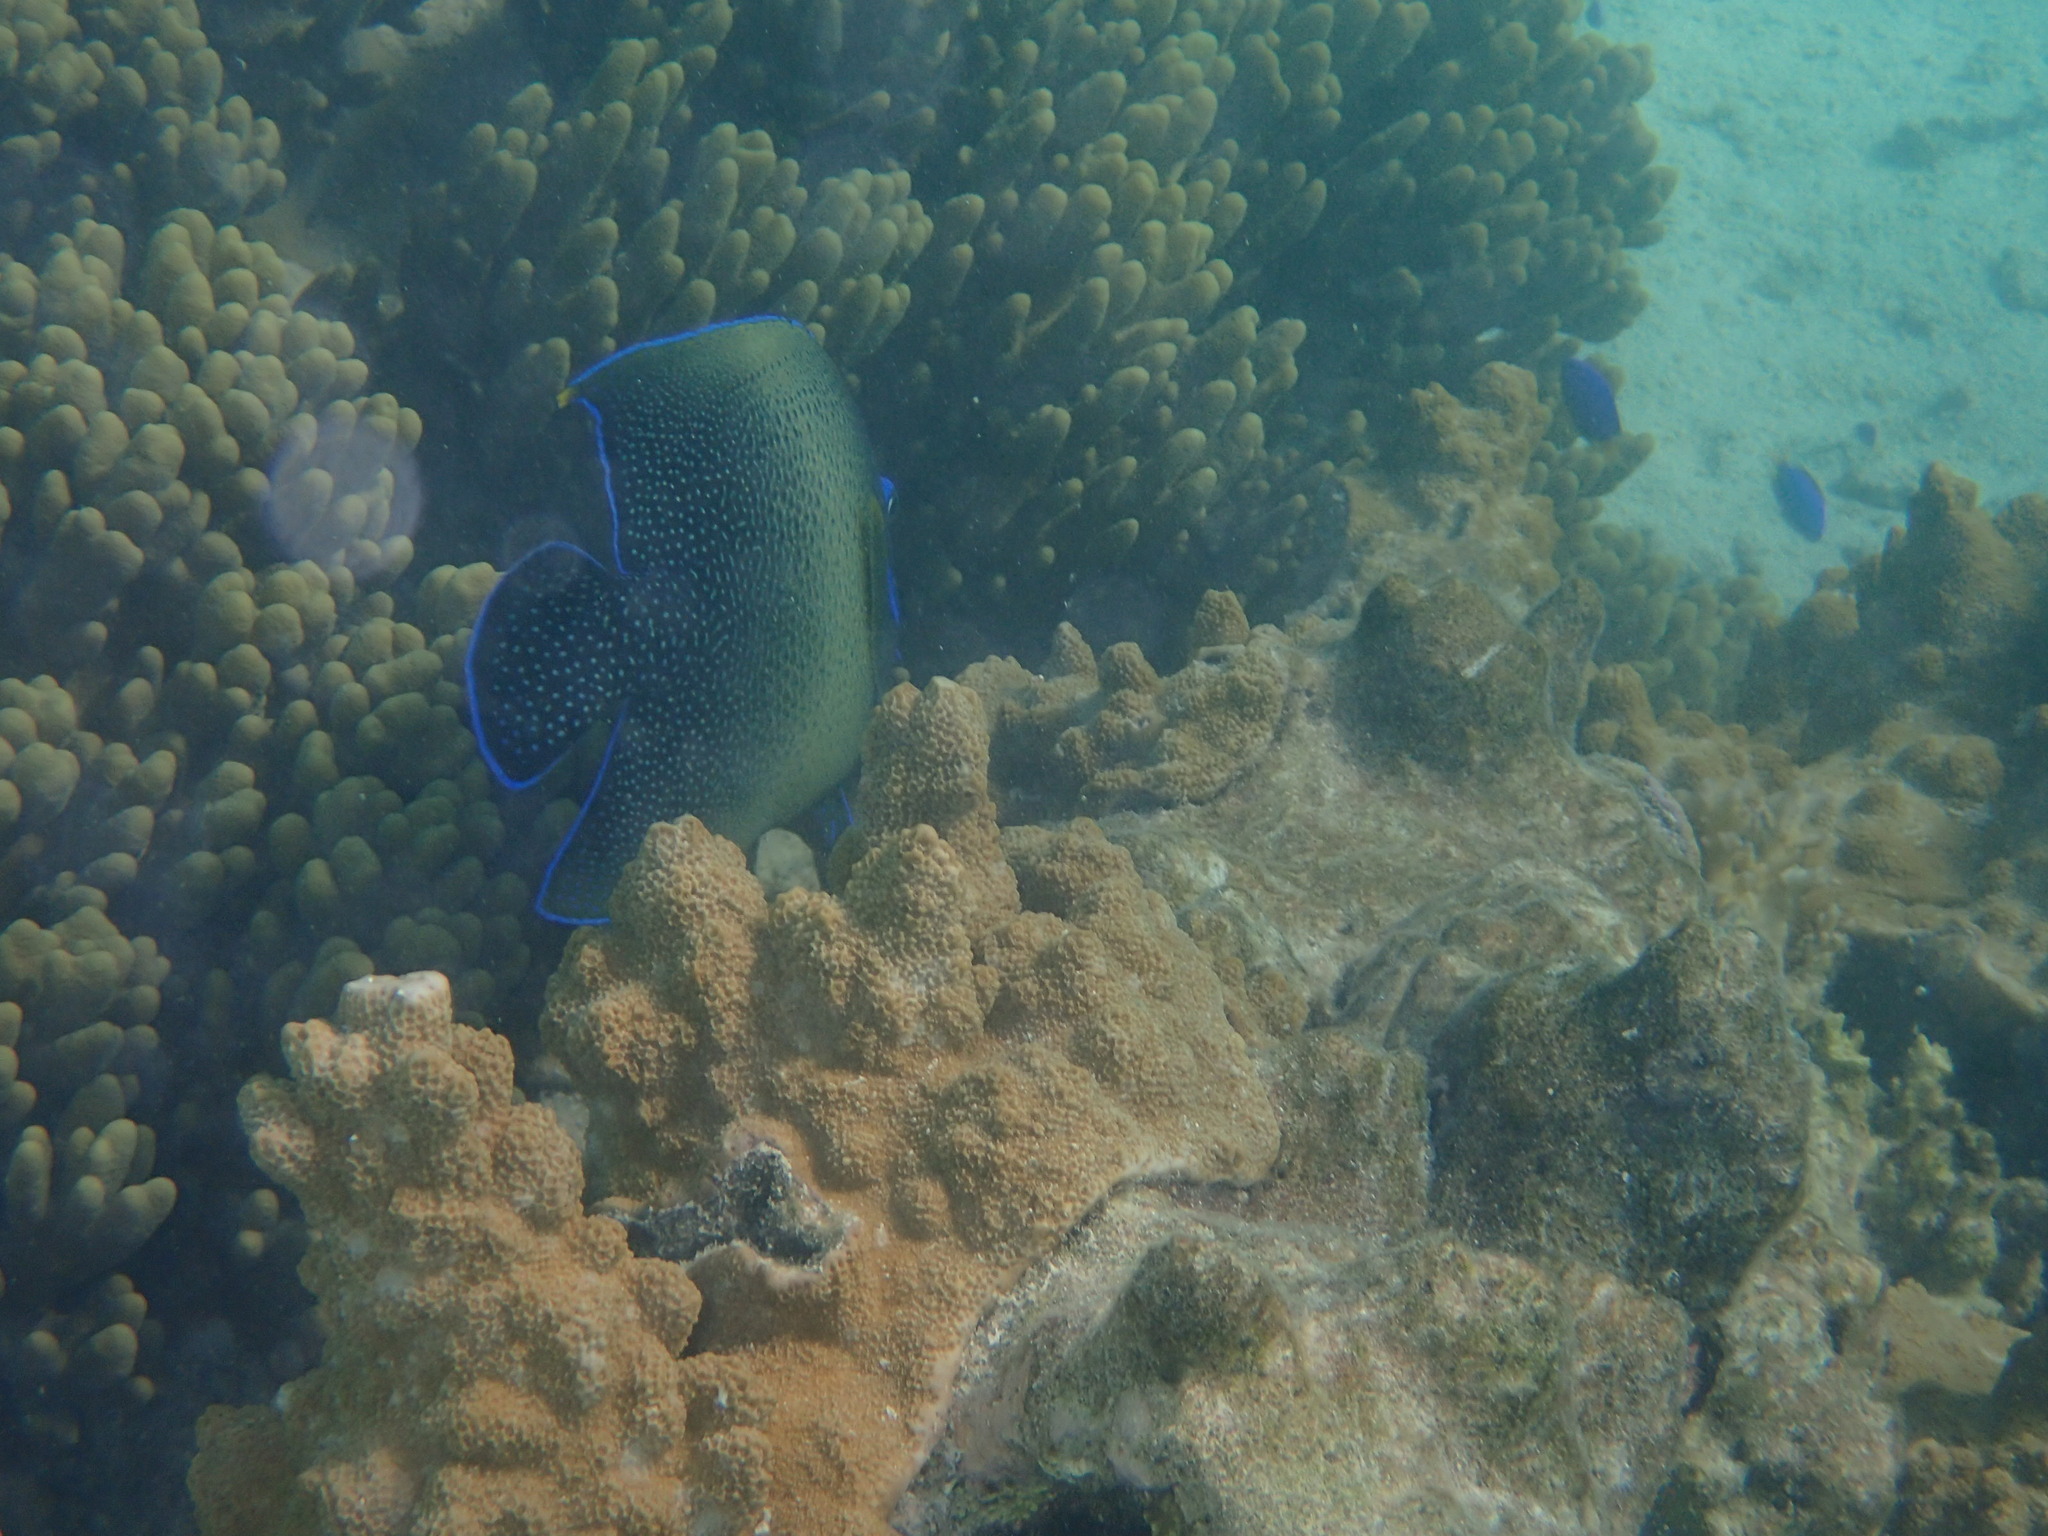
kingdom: Animalia
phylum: Chordata
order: Perciformes
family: Pomacanthidae
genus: Pomacanthus
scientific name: Pomacanthus semicirculatus
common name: Semicircle angelfish
